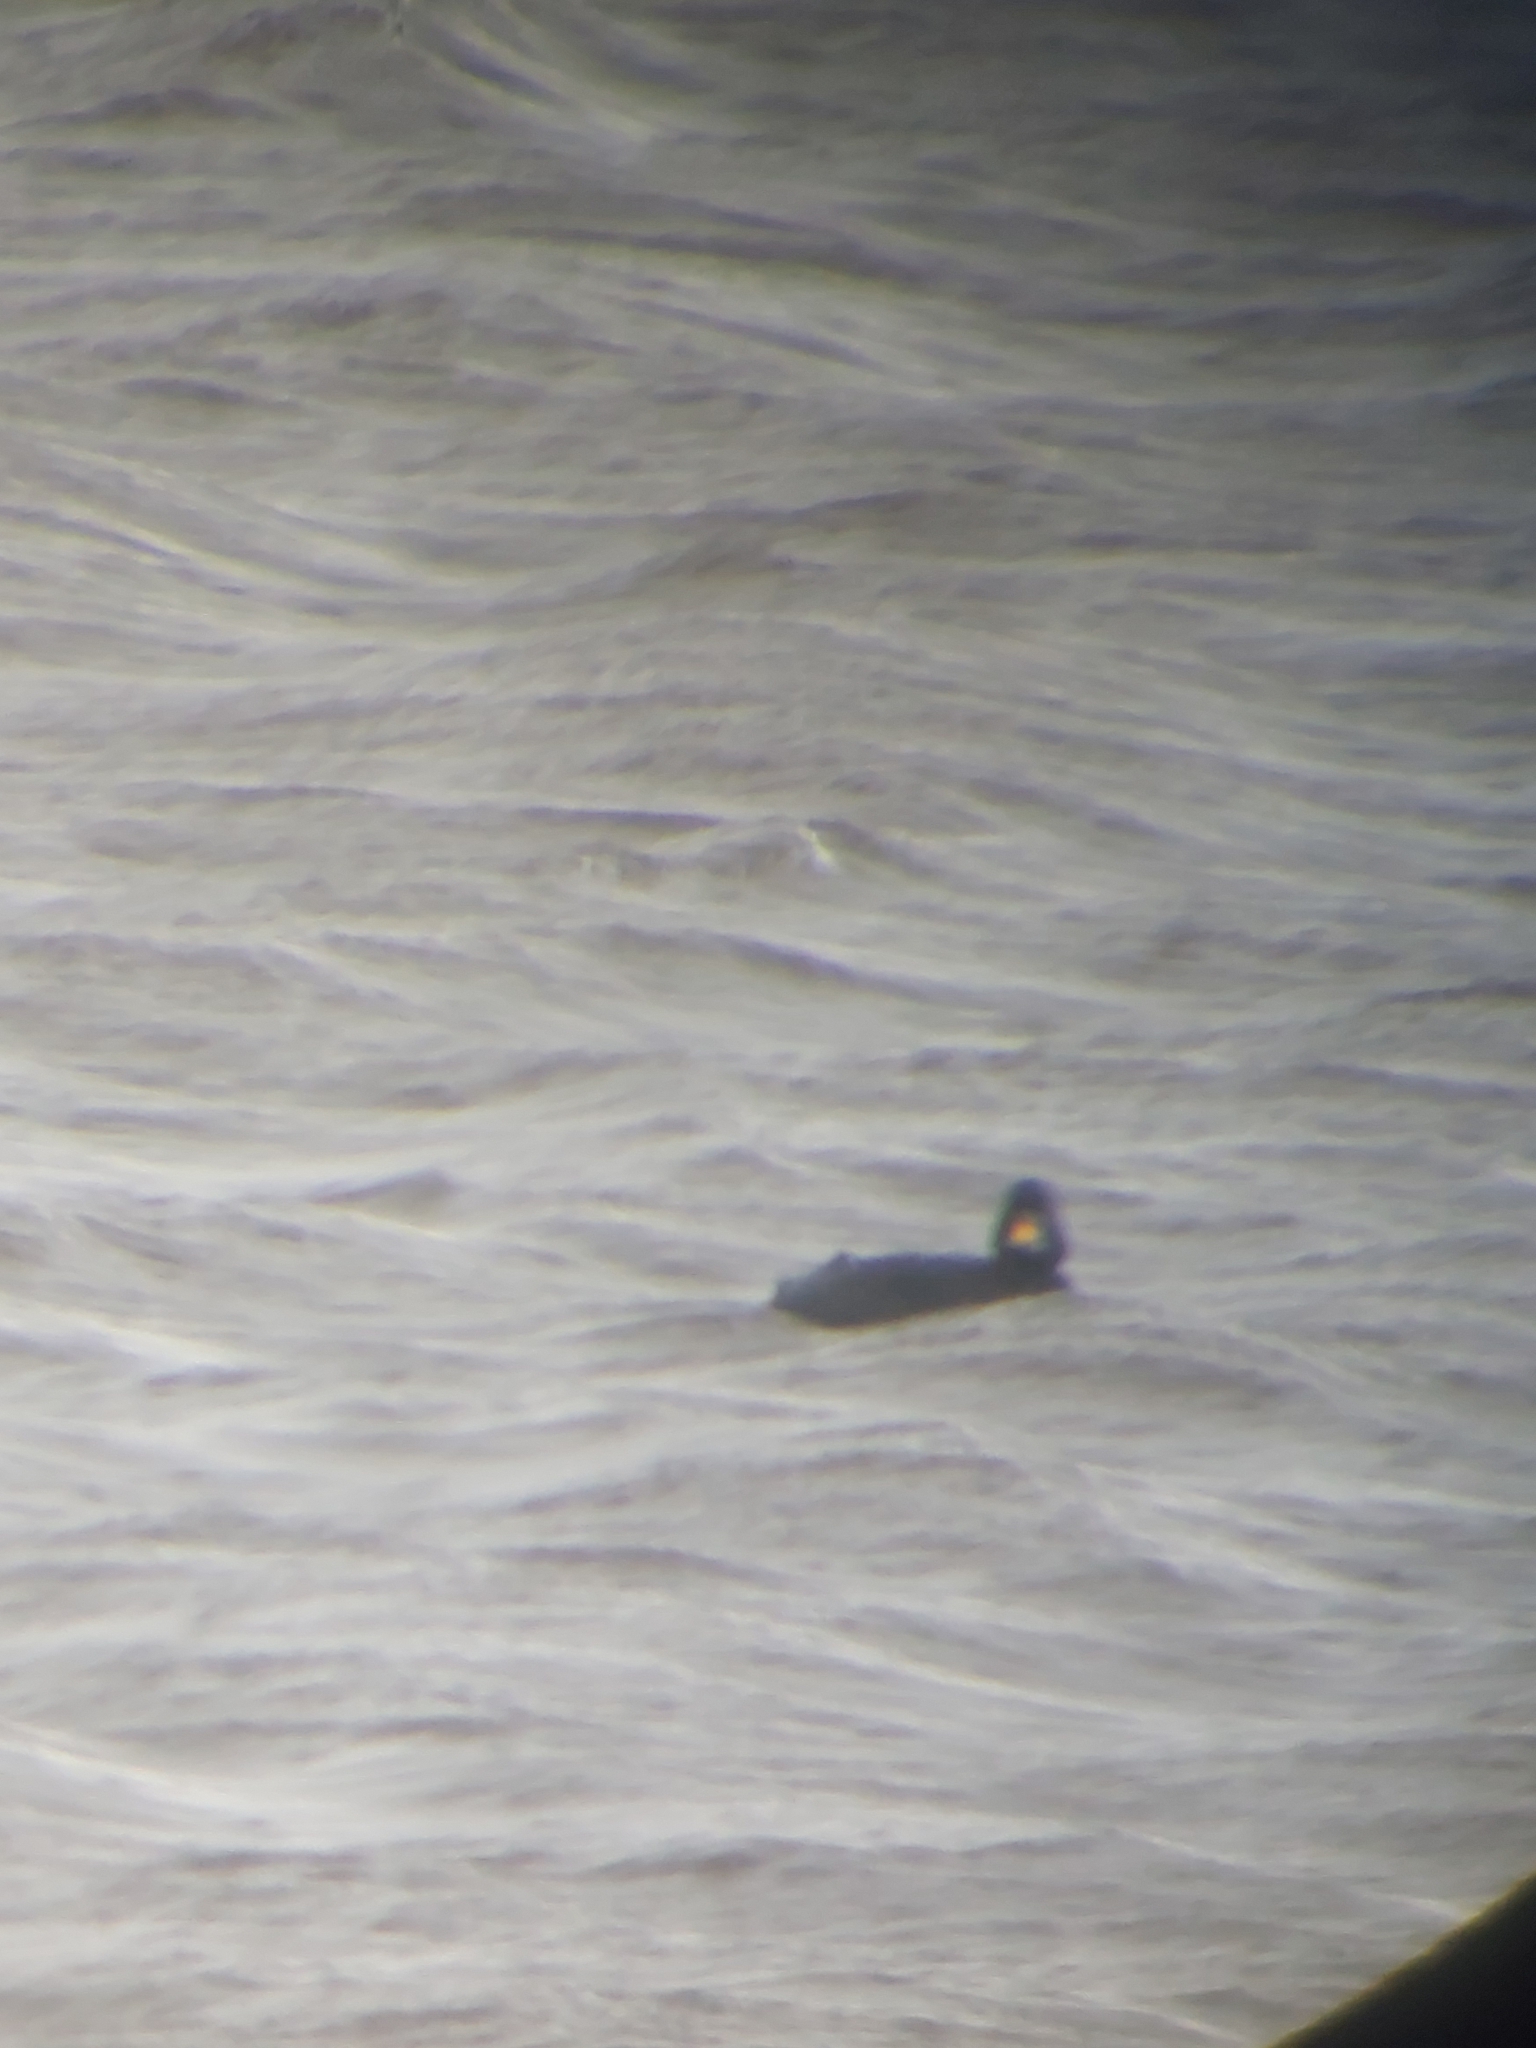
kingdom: Animalia
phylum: Chordata
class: Aves
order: Anseriformes
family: Anatidae
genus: Melanitta
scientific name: Melanitta nigra
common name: Common scoter
